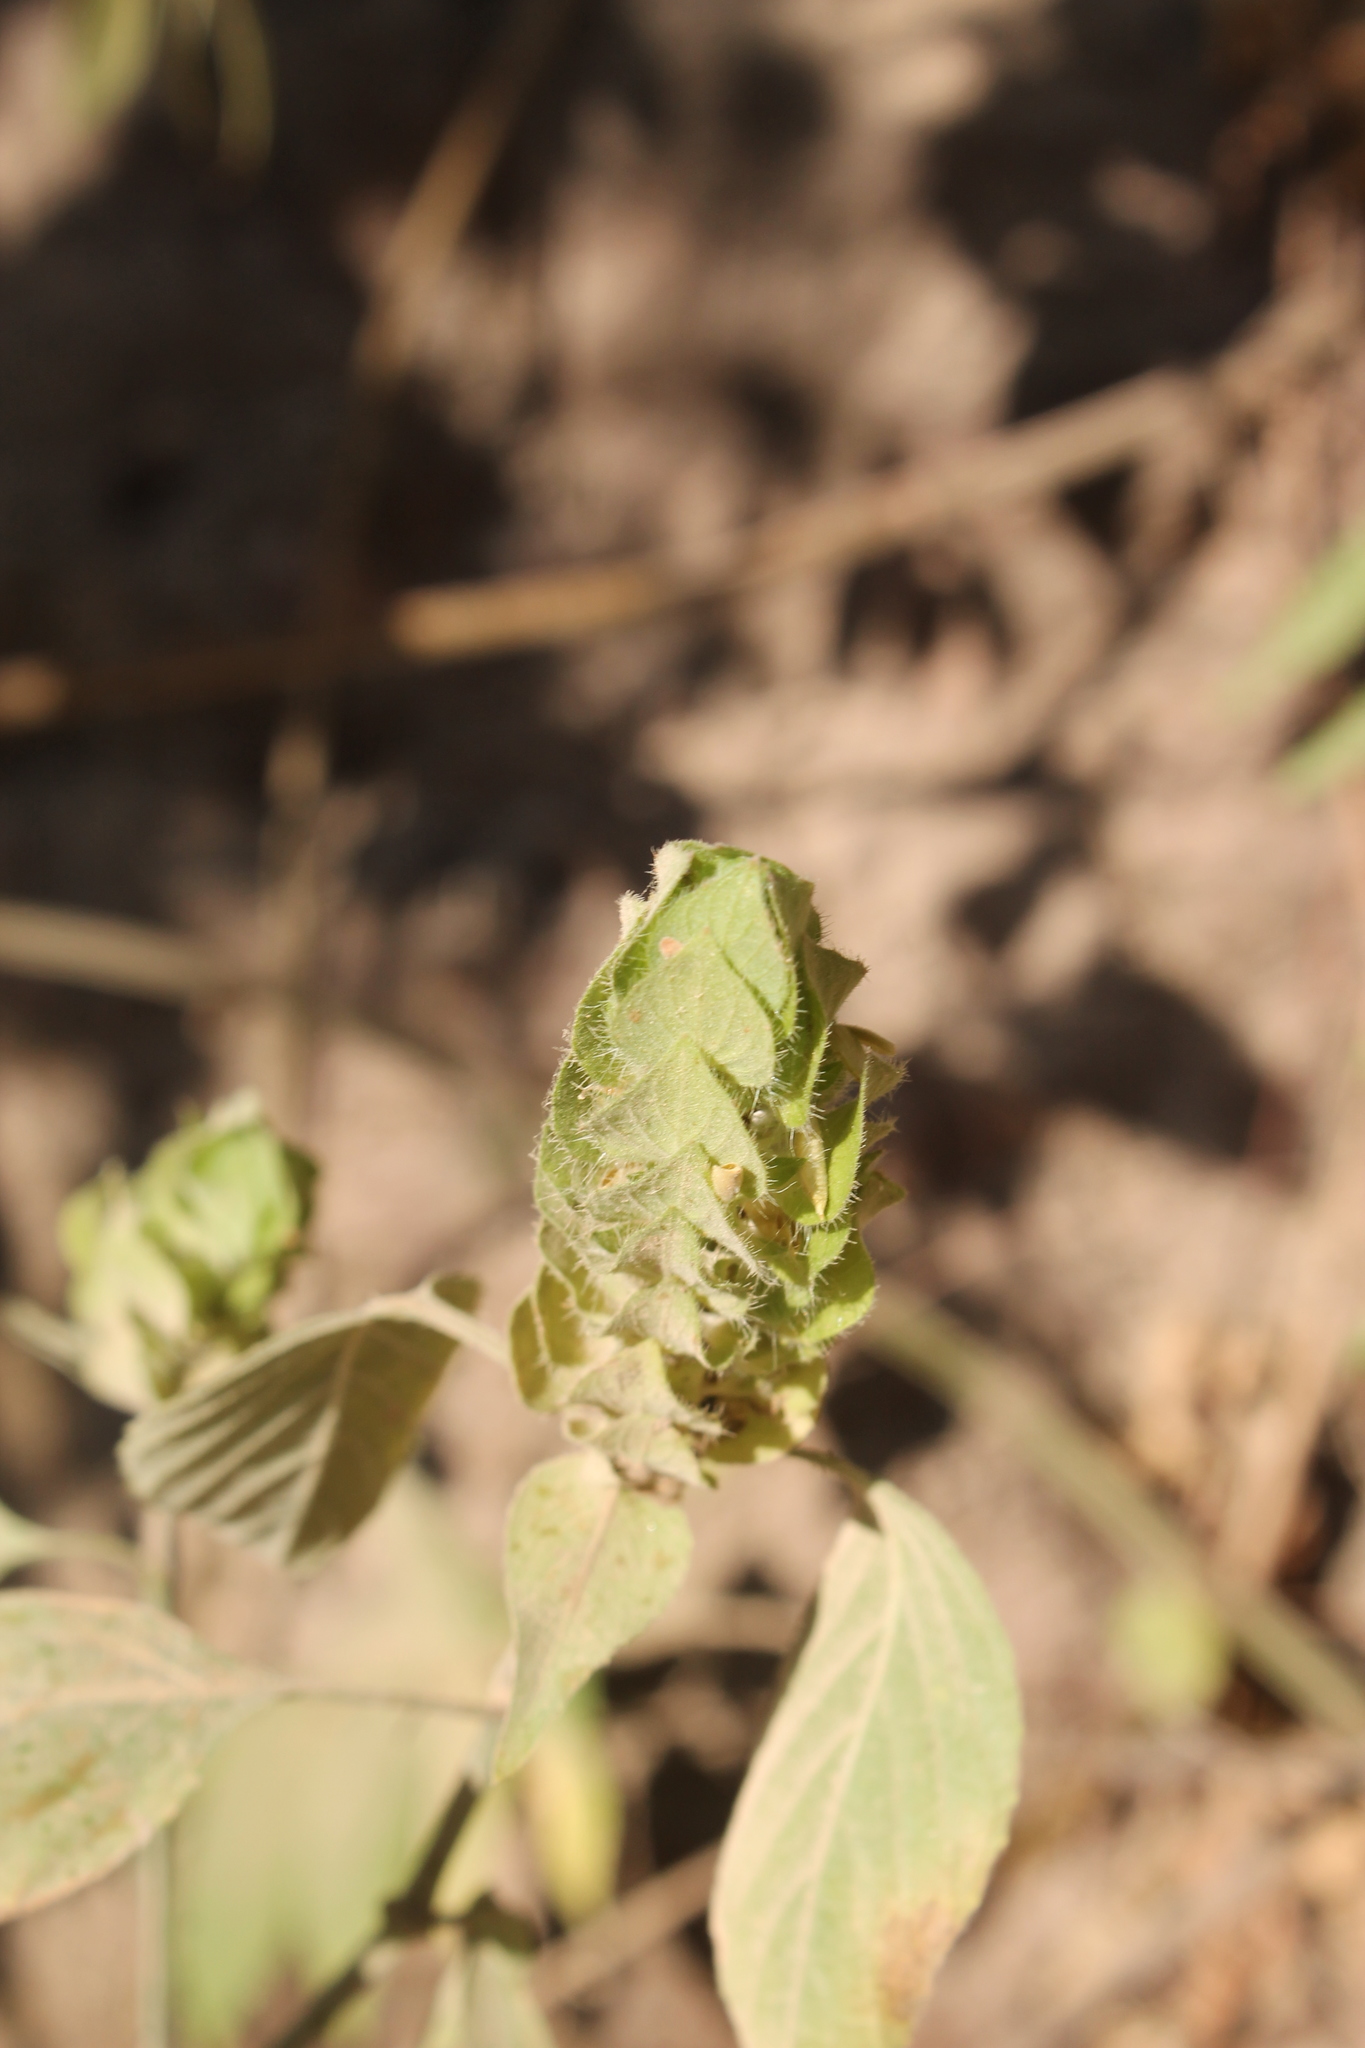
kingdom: Plantae
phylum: Tracheophyta
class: Magnoliopsida
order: Lamiales
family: Acanthaceae
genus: Ruellia
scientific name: Ruellia blechum
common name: Browne's blechum
